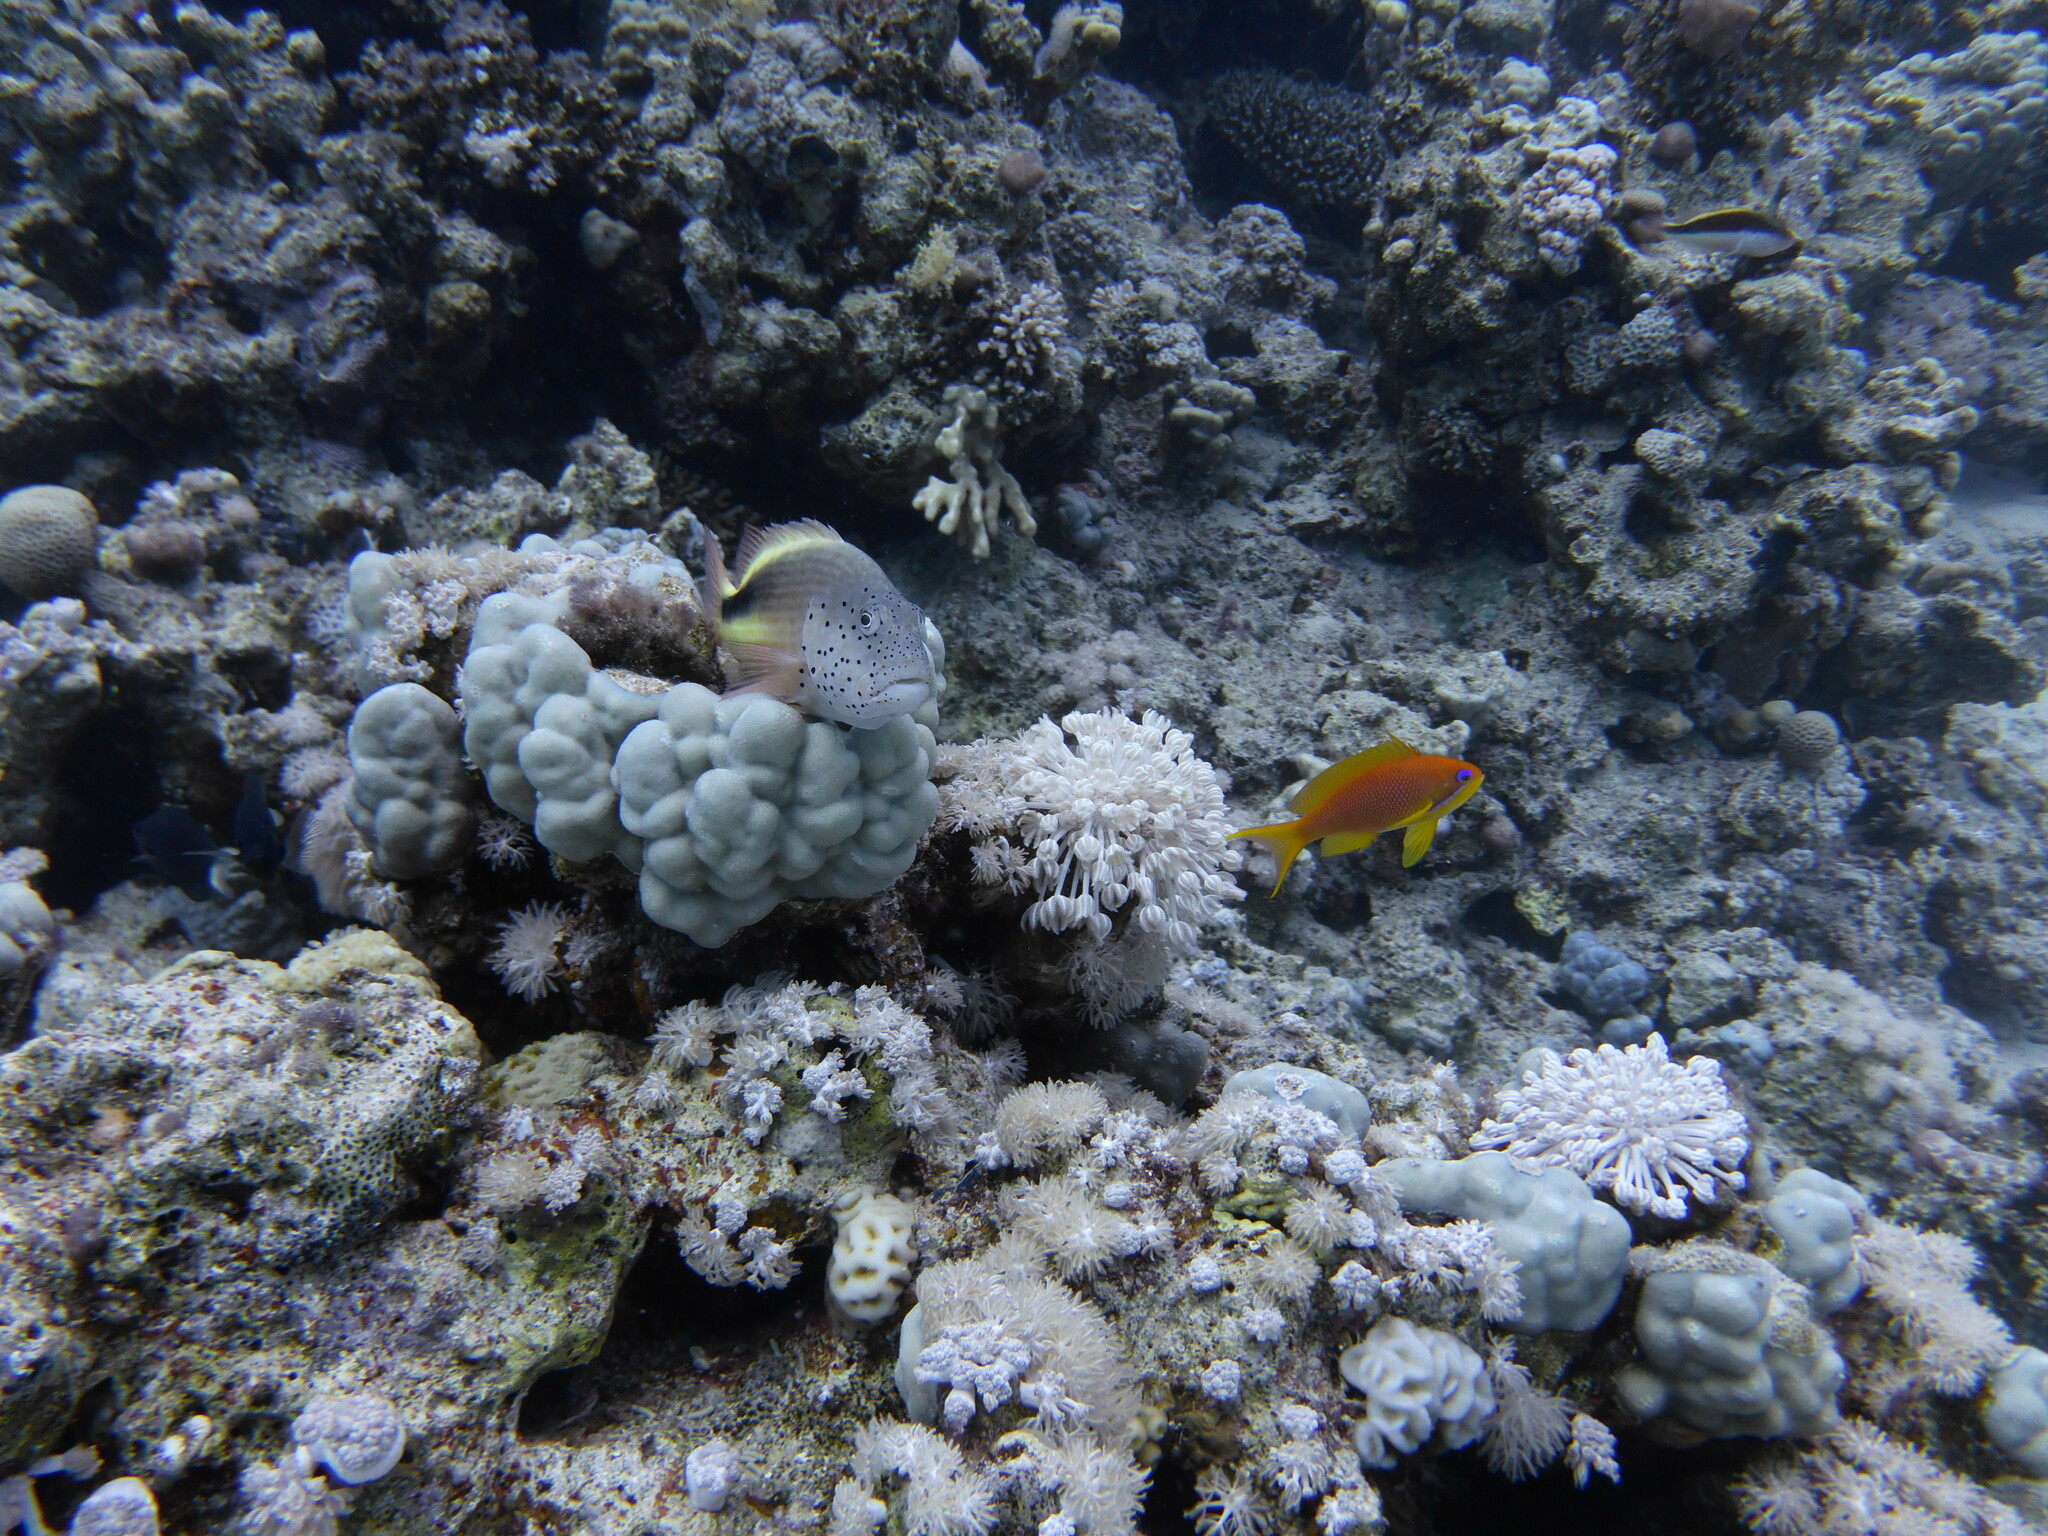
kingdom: Animalia
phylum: Chordata
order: Perciformes
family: Serranidae
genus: Pseudanthias
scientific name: Pseudanthias squamipinnis
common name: Scalefin anthias
